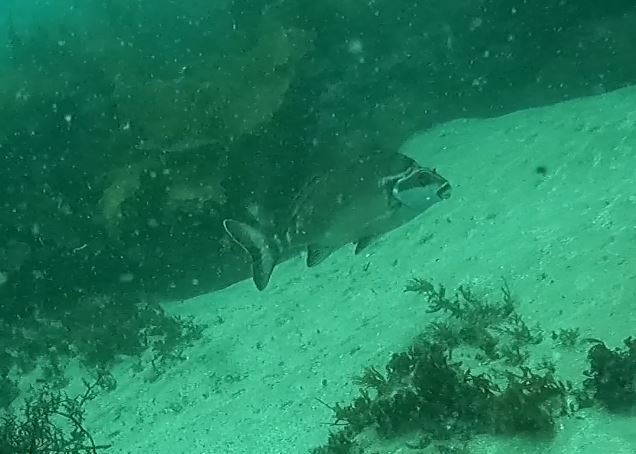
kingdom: Animalia
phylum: Chordata
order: Perciformes
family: Latridae
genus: Morwong
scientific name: Morwong fuscus
